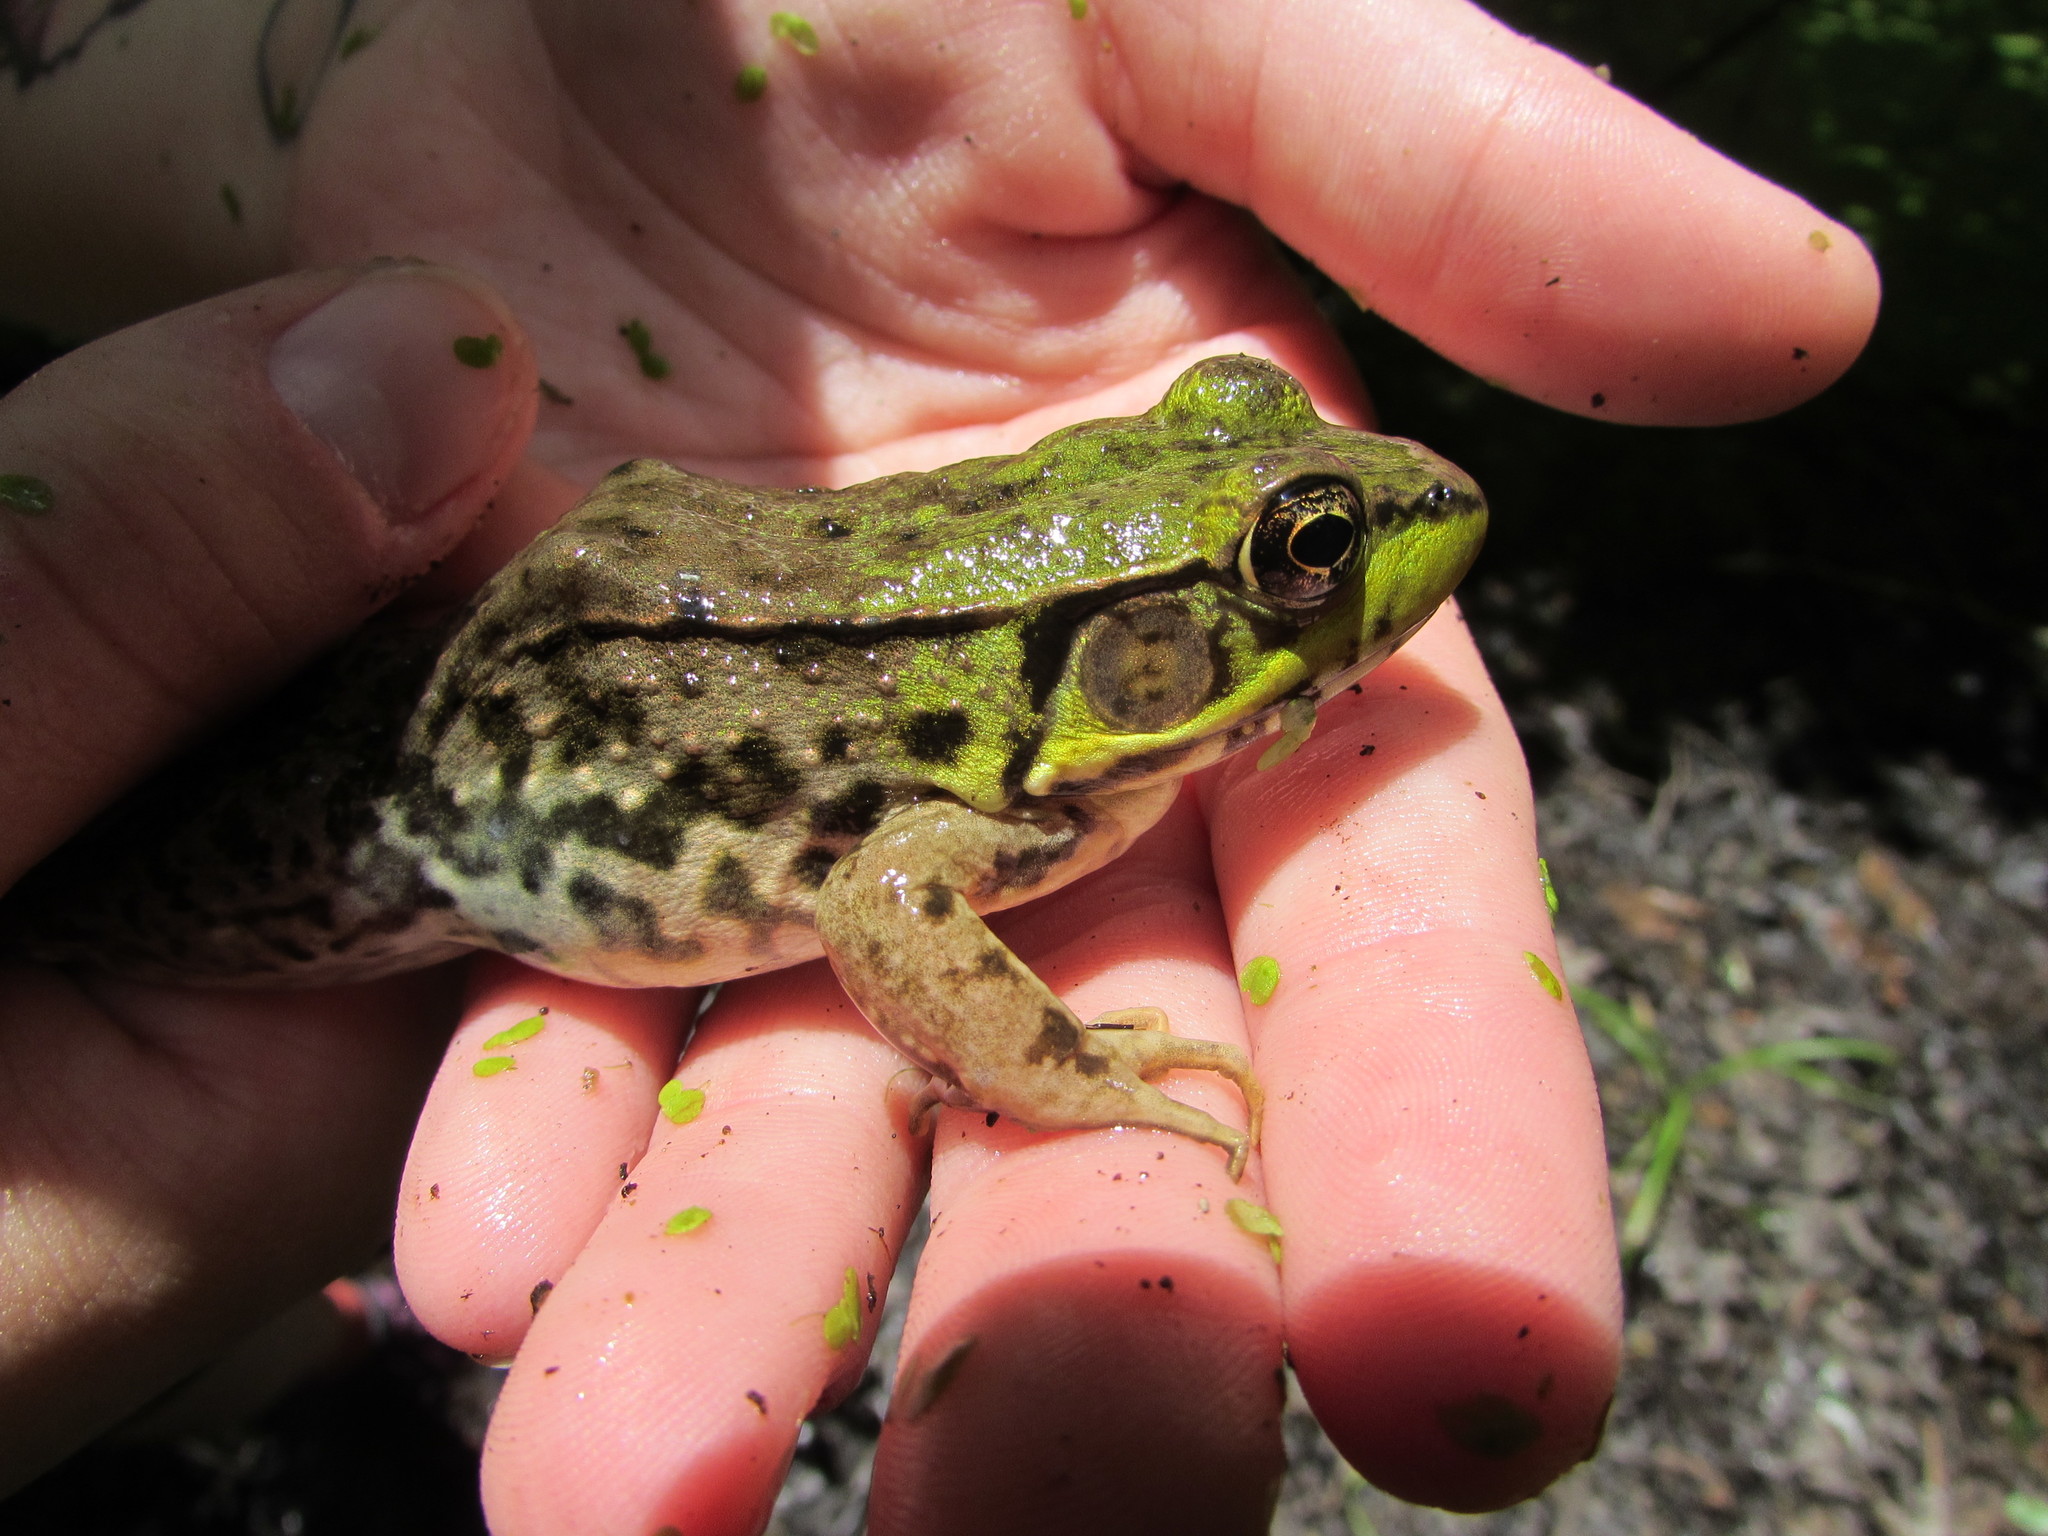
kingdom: Animalia
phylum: Chordata
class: Amphibia
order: Anura
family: Ranidae
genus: Lithobates
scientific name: Lithobates clamitans
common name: Green frog
